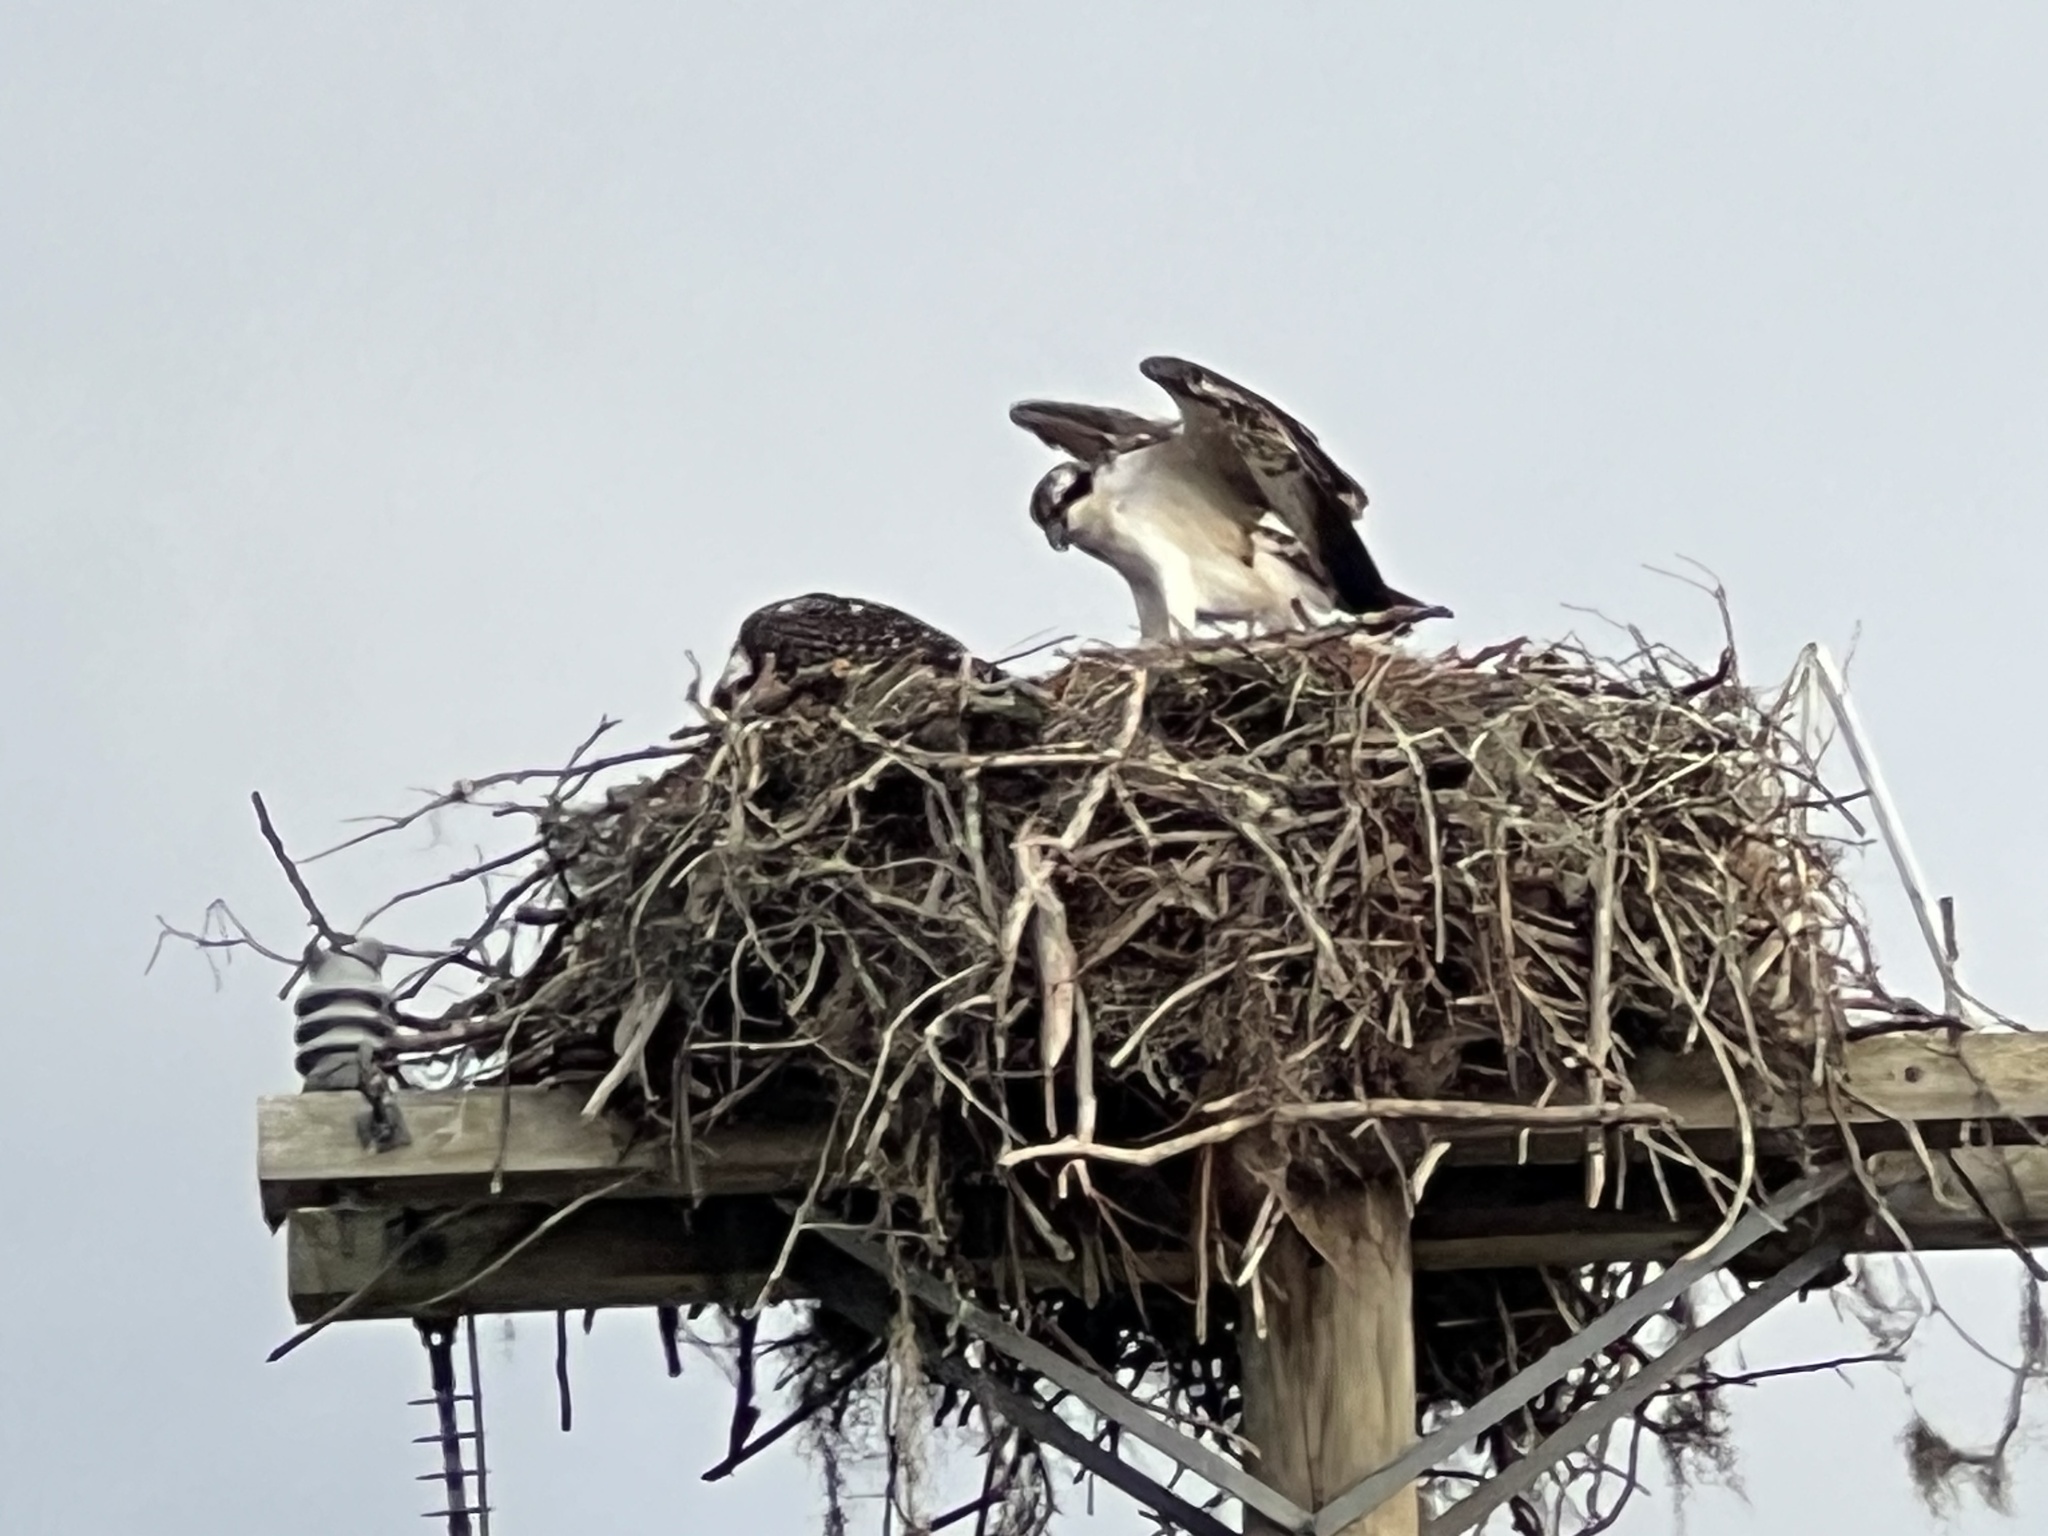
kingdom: Animalia
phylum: Chordata
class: Aves
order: Accipitriformes
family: Pandionidae
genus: Pandion
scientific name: Pandion haliaetus
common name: Osprey
